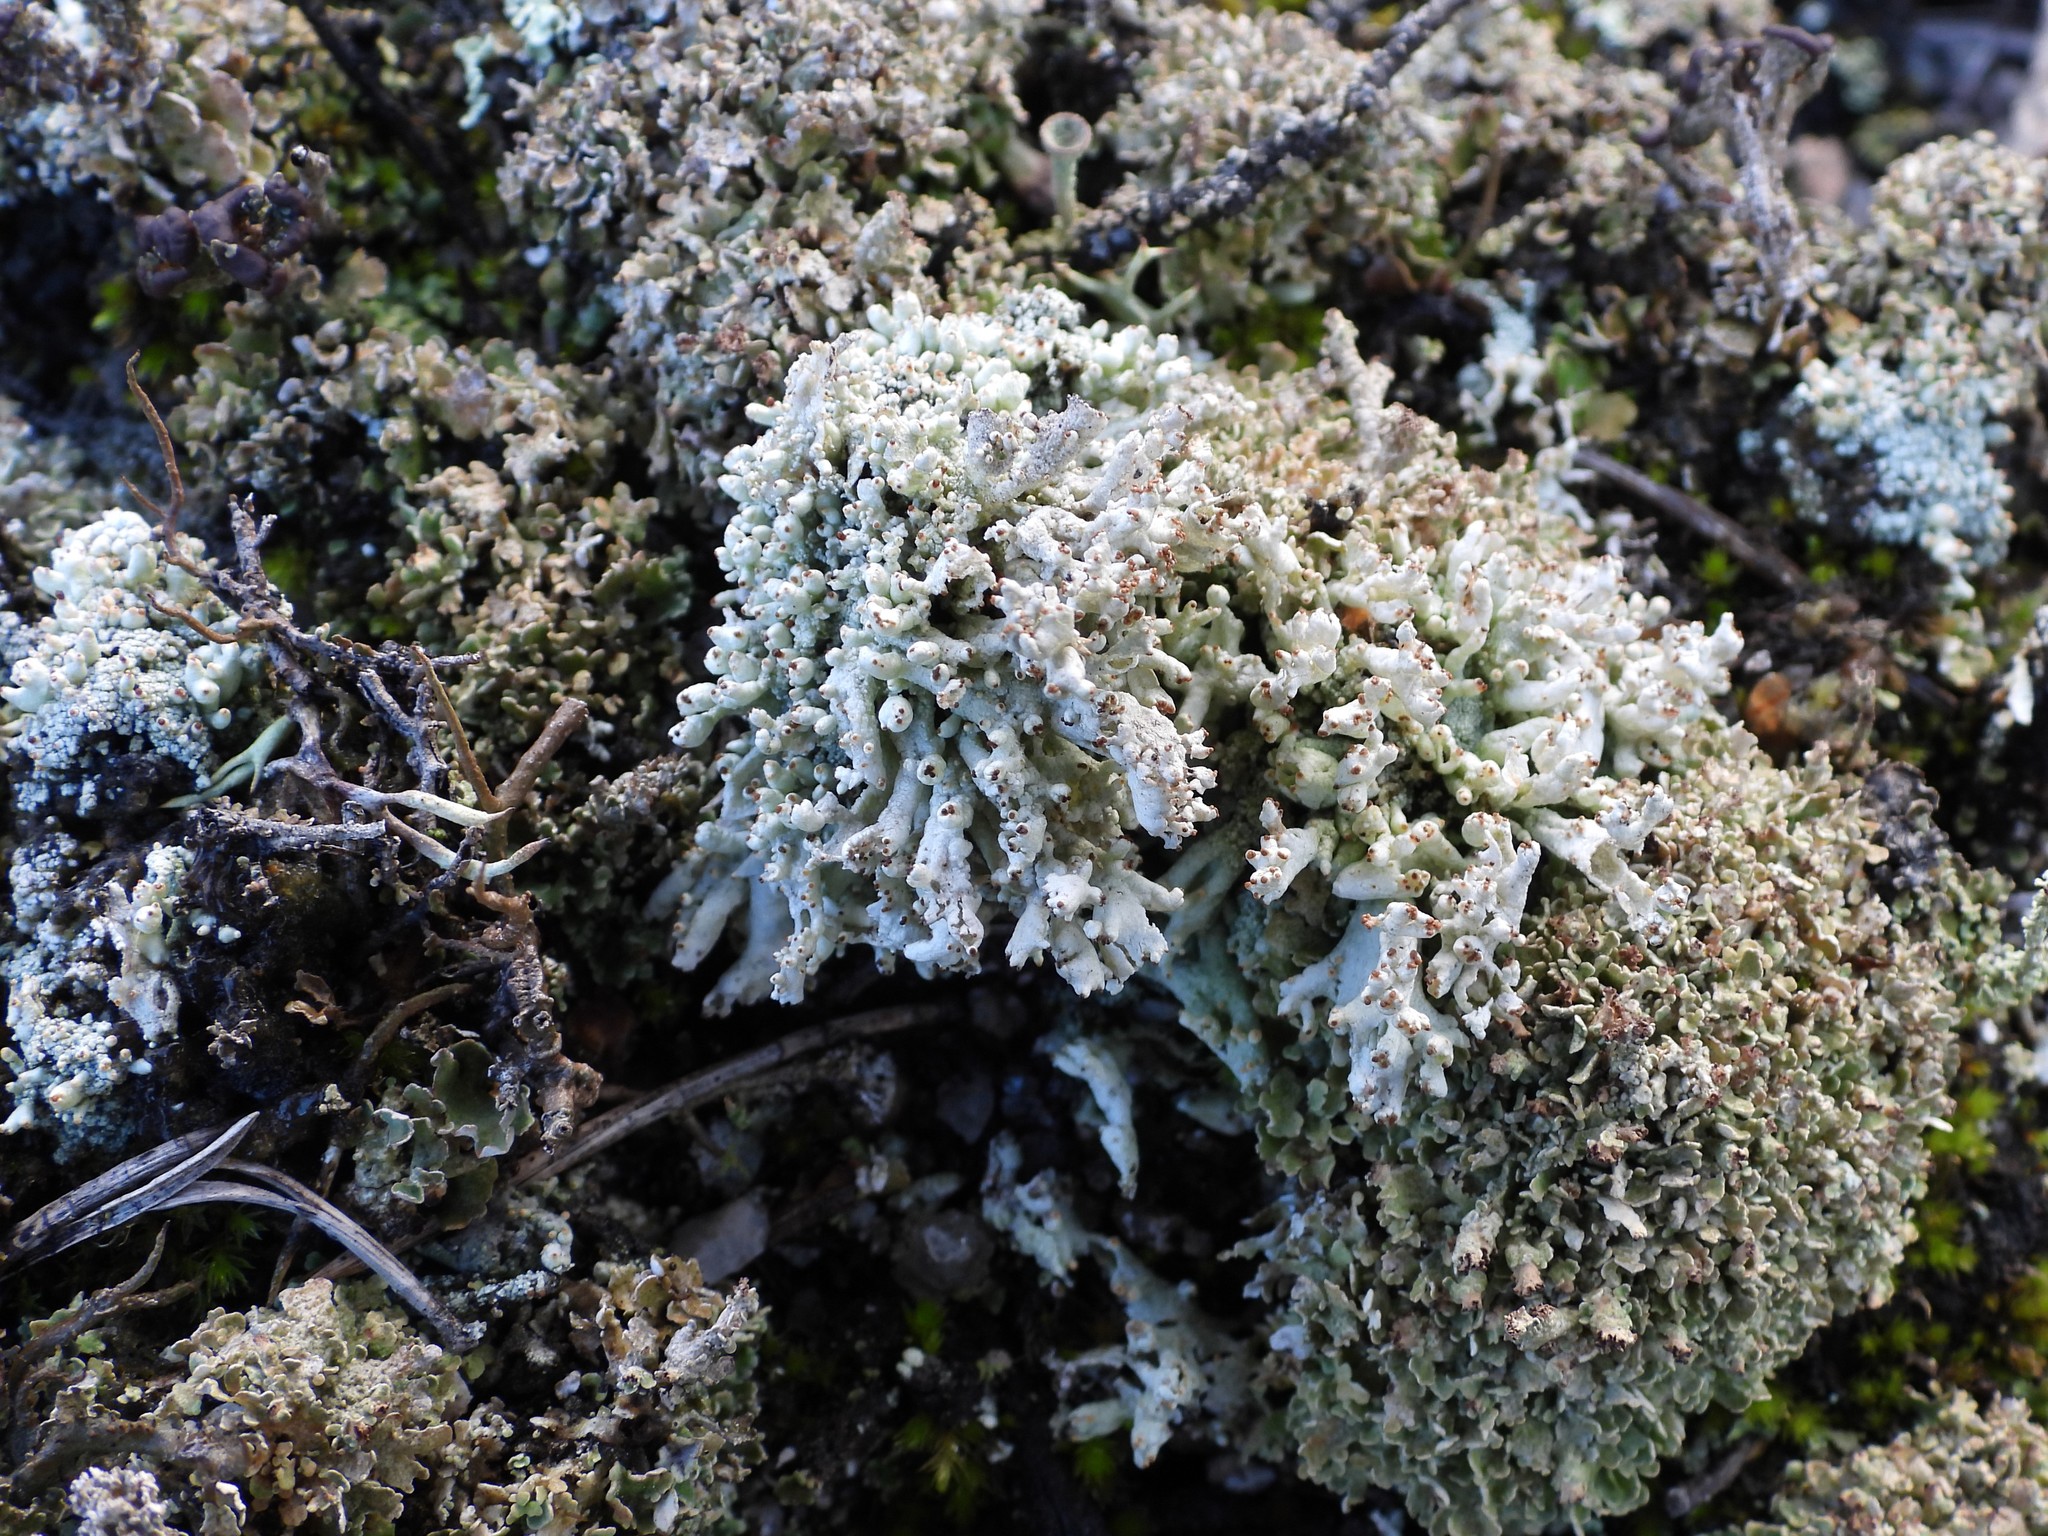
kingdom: Fungi
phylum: Ascomycota
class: Lecanoromycetes
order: Lecanorales
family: Cladoniaceae
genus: Pycnothelia
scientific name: Pycnothelia papillaria
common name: Nipple lichen
